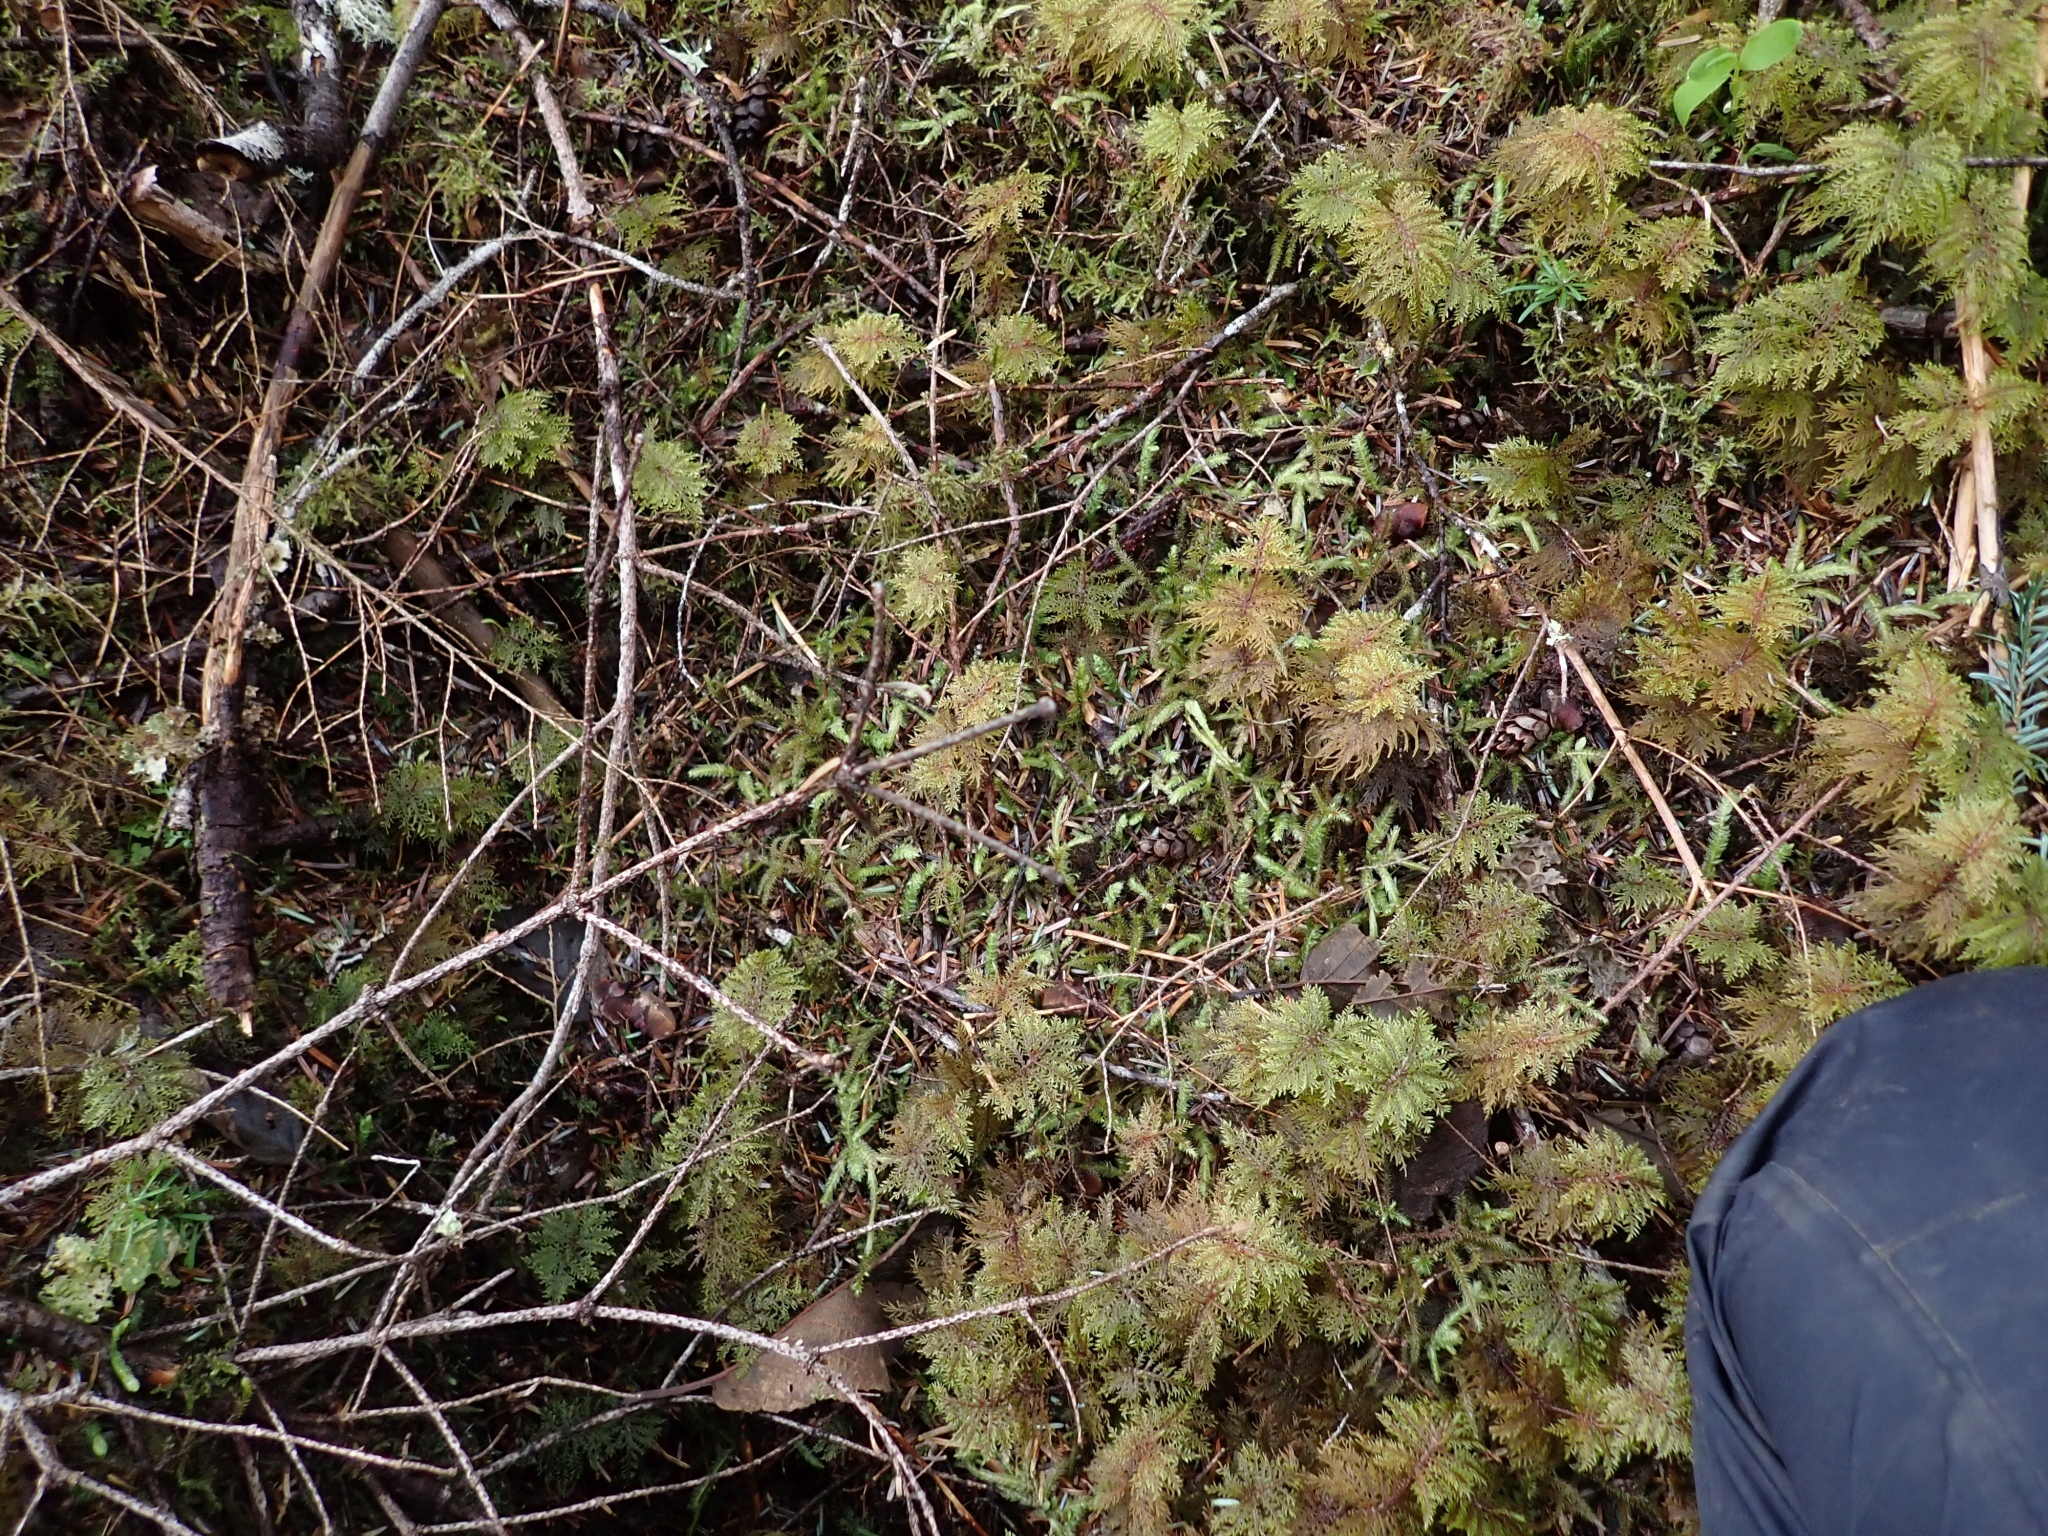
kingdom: Plantae
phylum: Bryophyta
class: Bryopsida
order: Hypnales
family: Plagiotheciaceae
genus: Plagiothecium
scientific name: Plagiothecium undulatum
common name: Waved silk-moss
